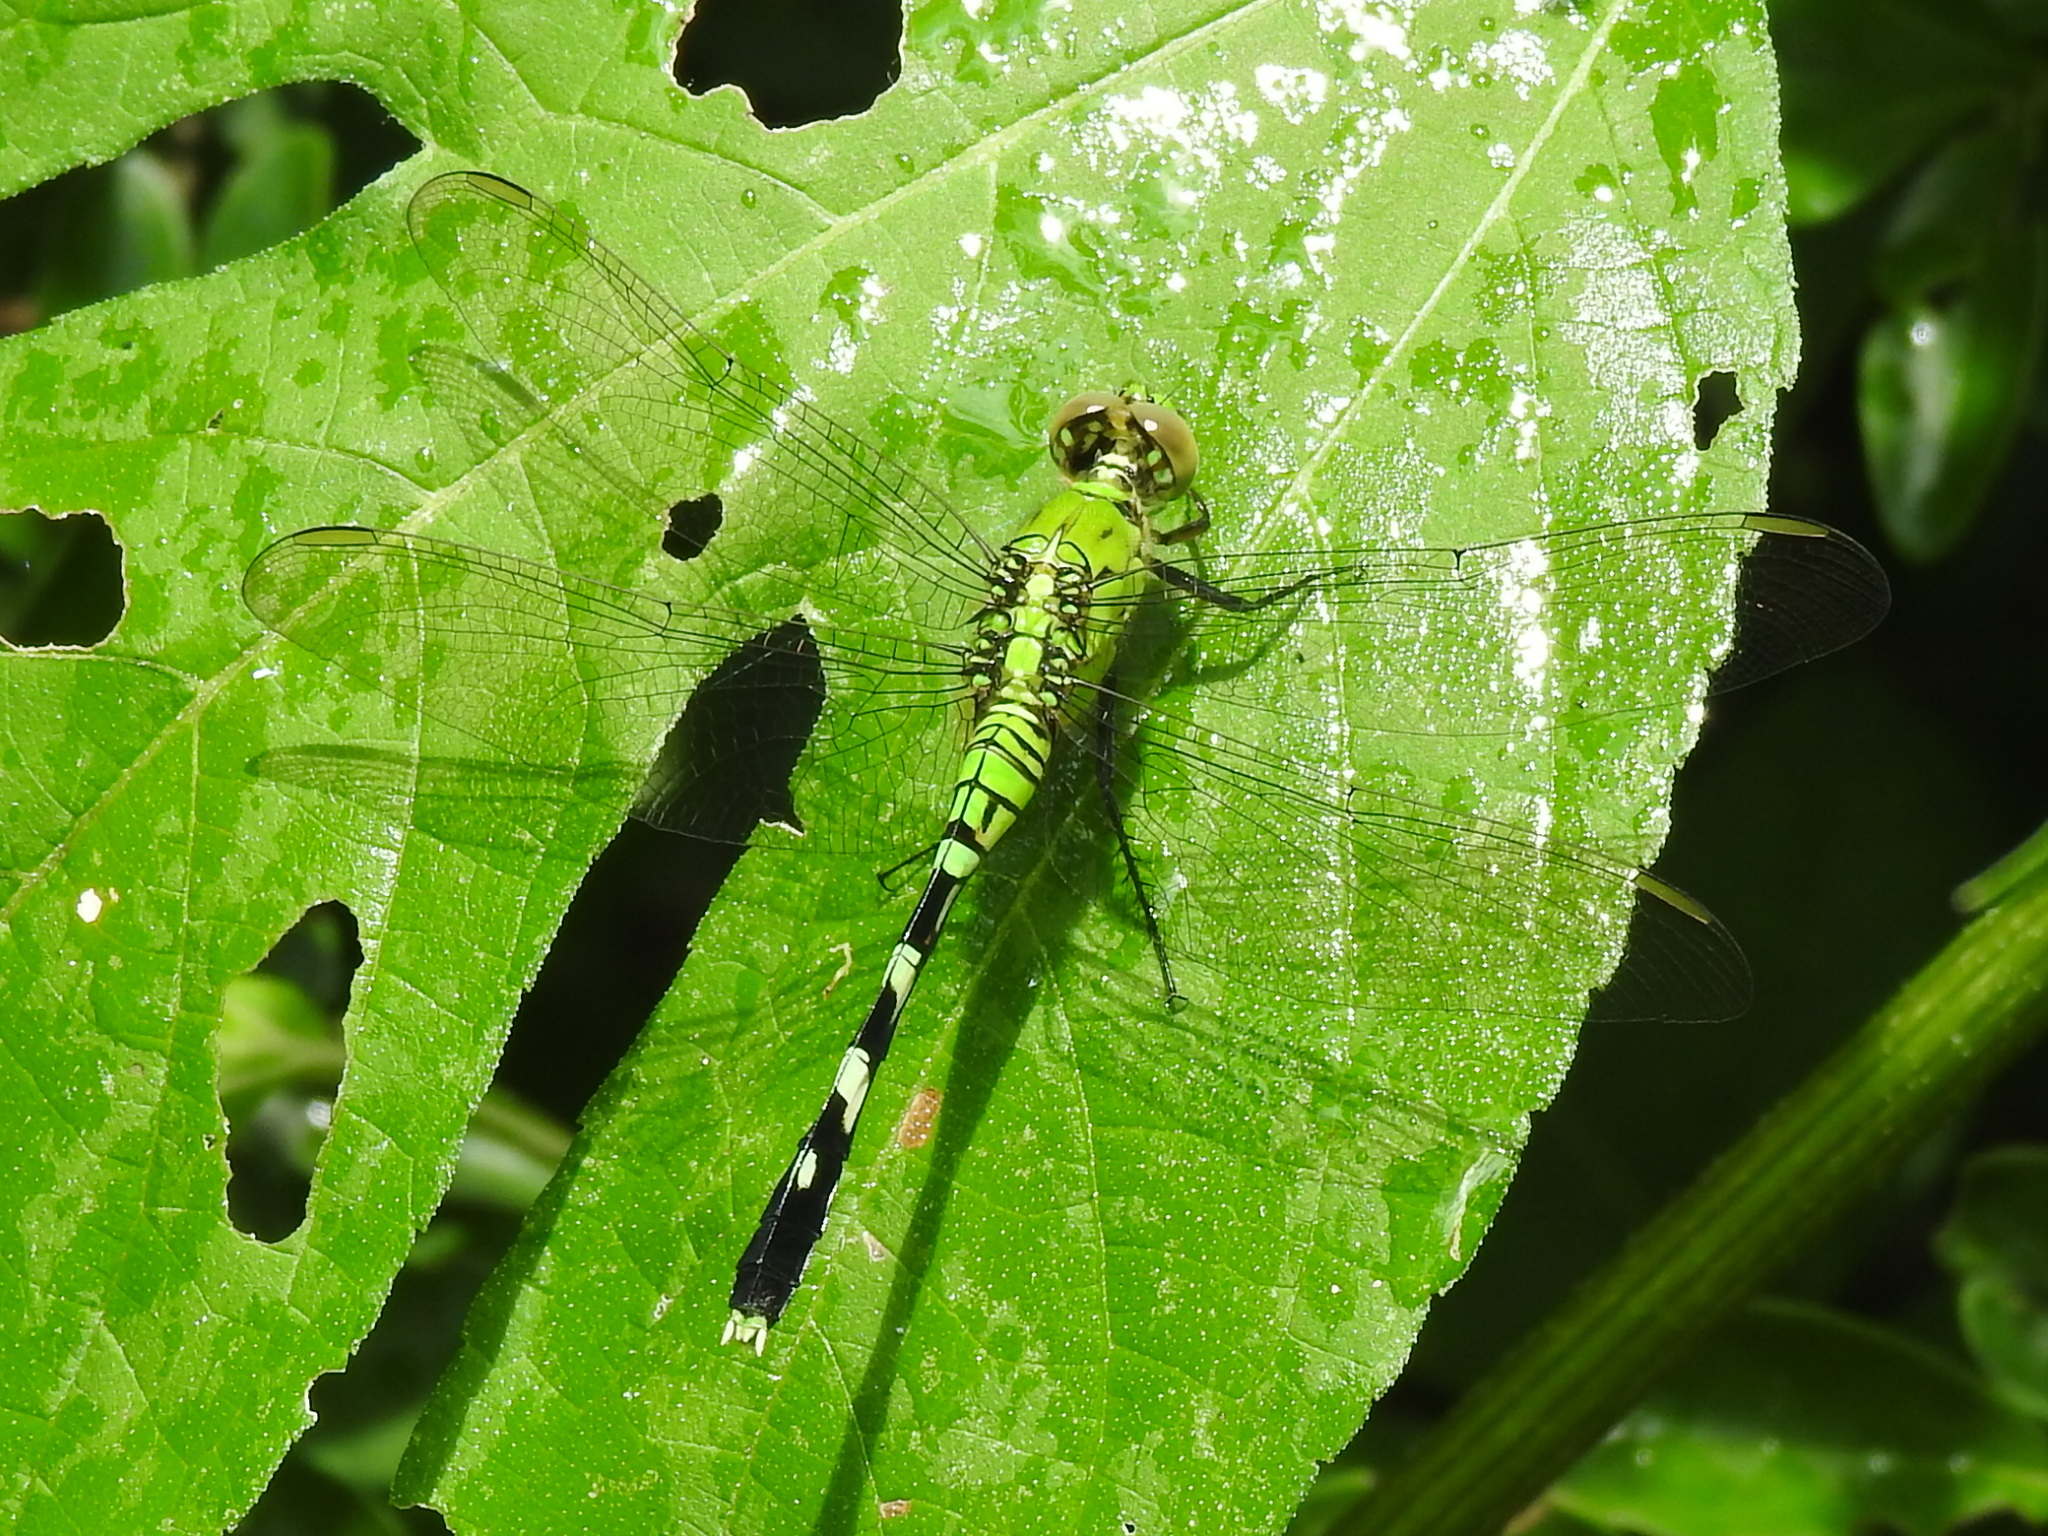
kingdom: Animalia
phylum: Arthropoda
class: Insecta
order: Odonata
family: Libellulidae
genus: Erythemis
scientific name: Erythemis simplicicollis
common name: Eastern pondhawk
